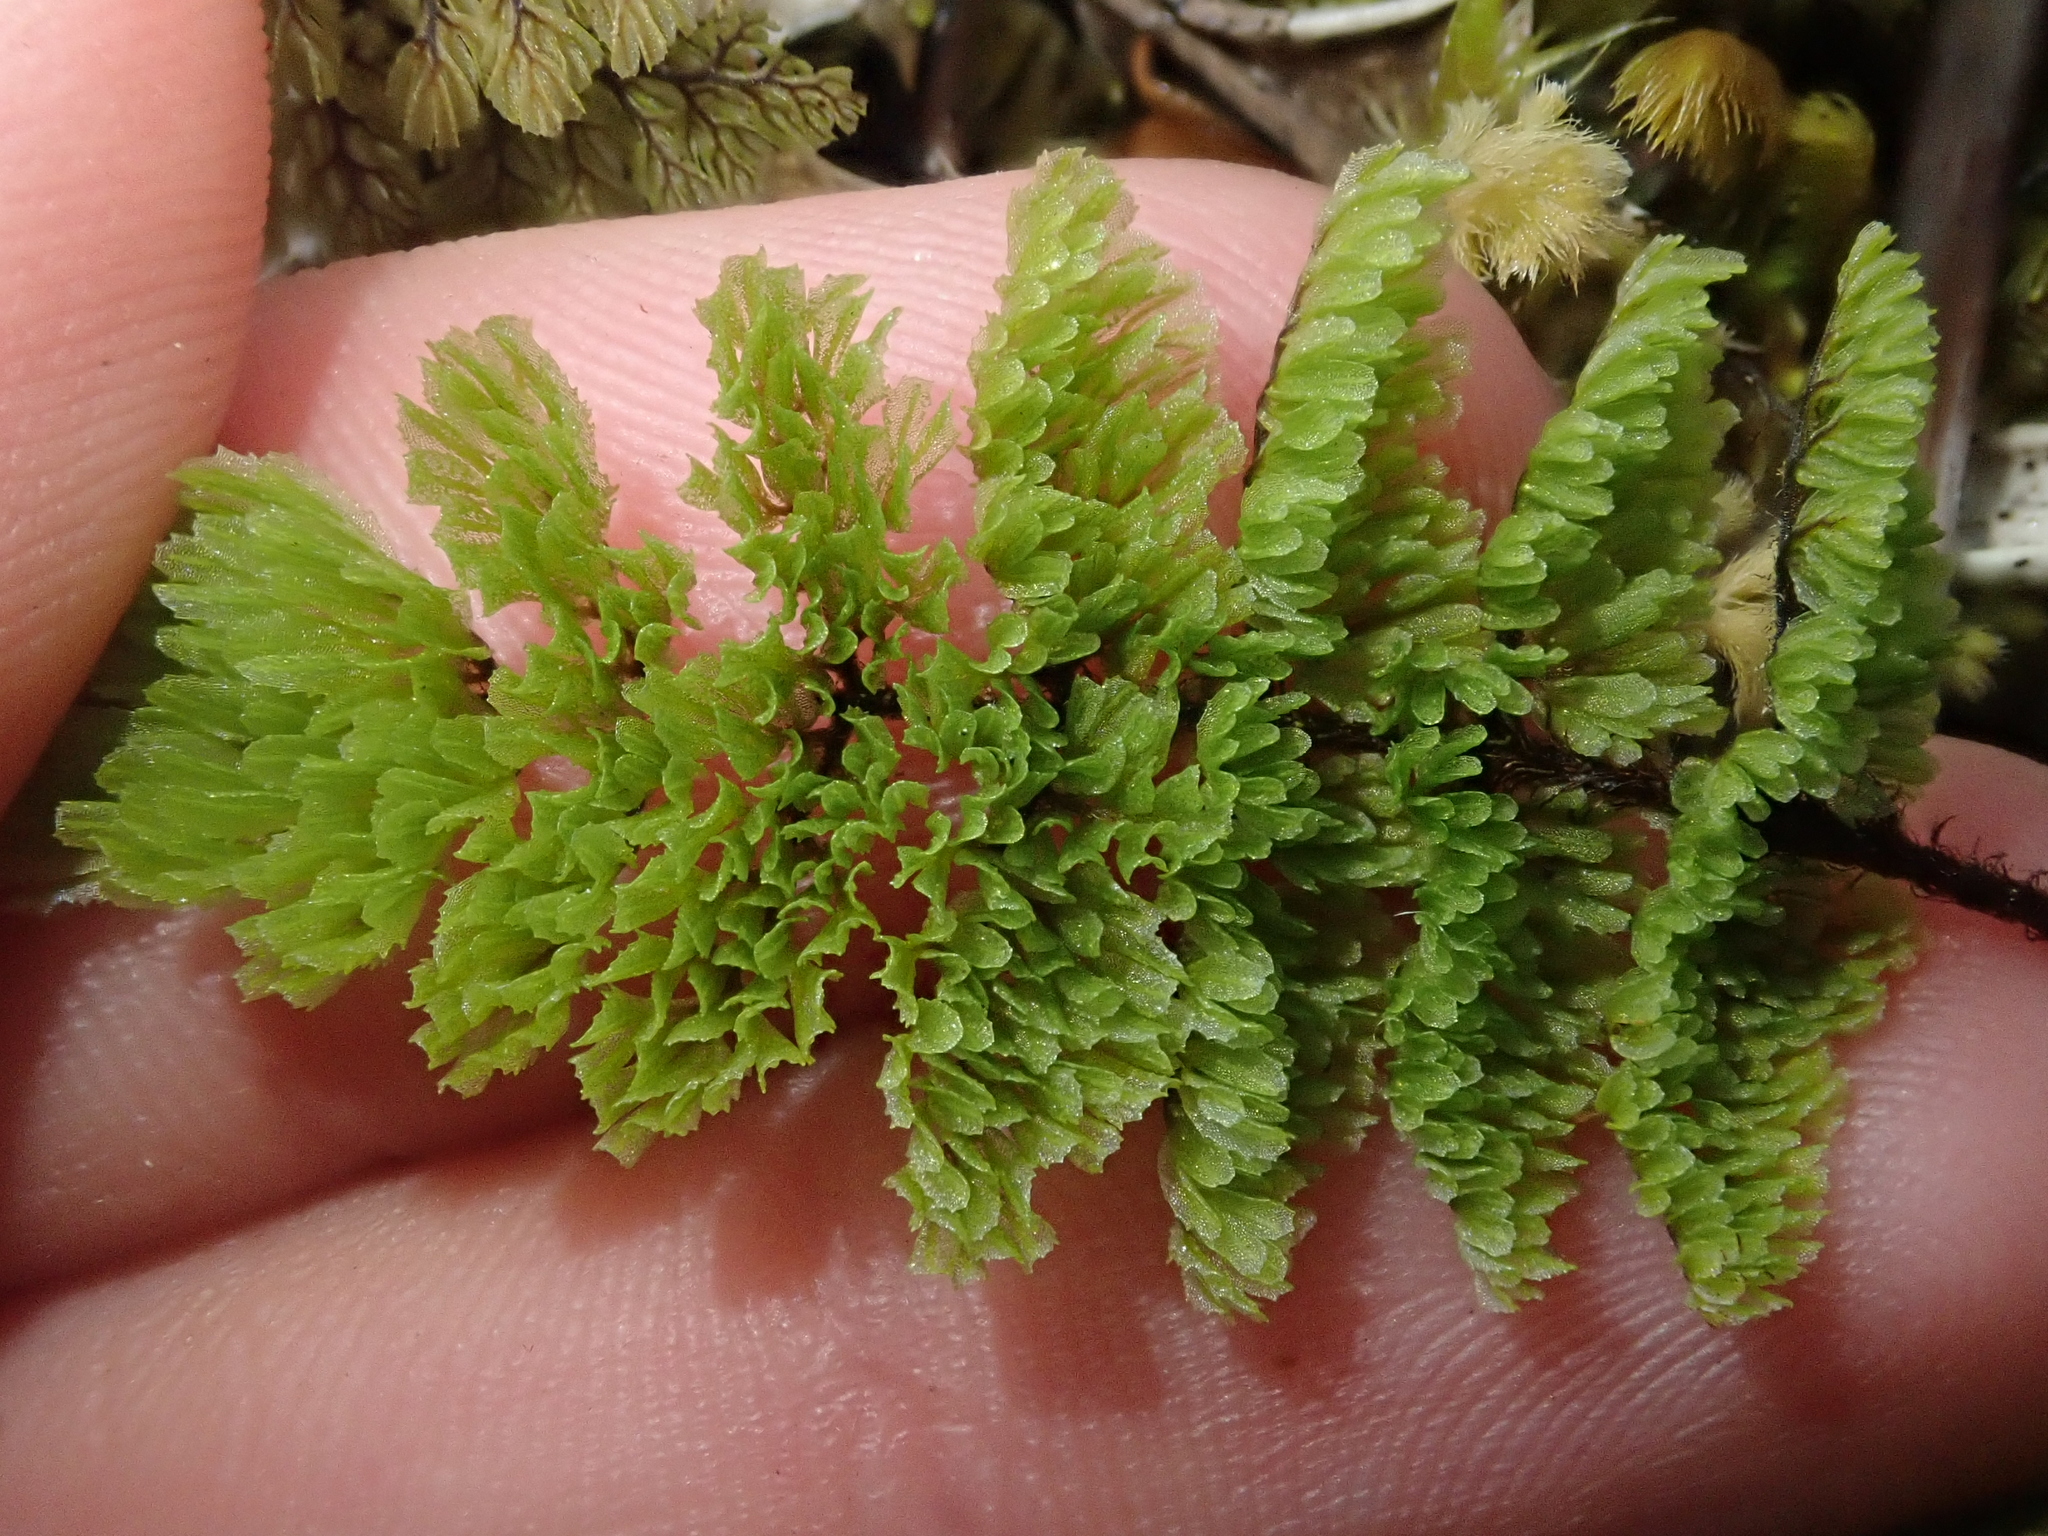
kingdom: Plantae
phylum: Tracheophyta
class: Polypodiopsida
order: Hymenophyllales
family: Hymenophyllaceae
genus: Hymenophyllum
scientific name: Hymenophyllum dentatum
